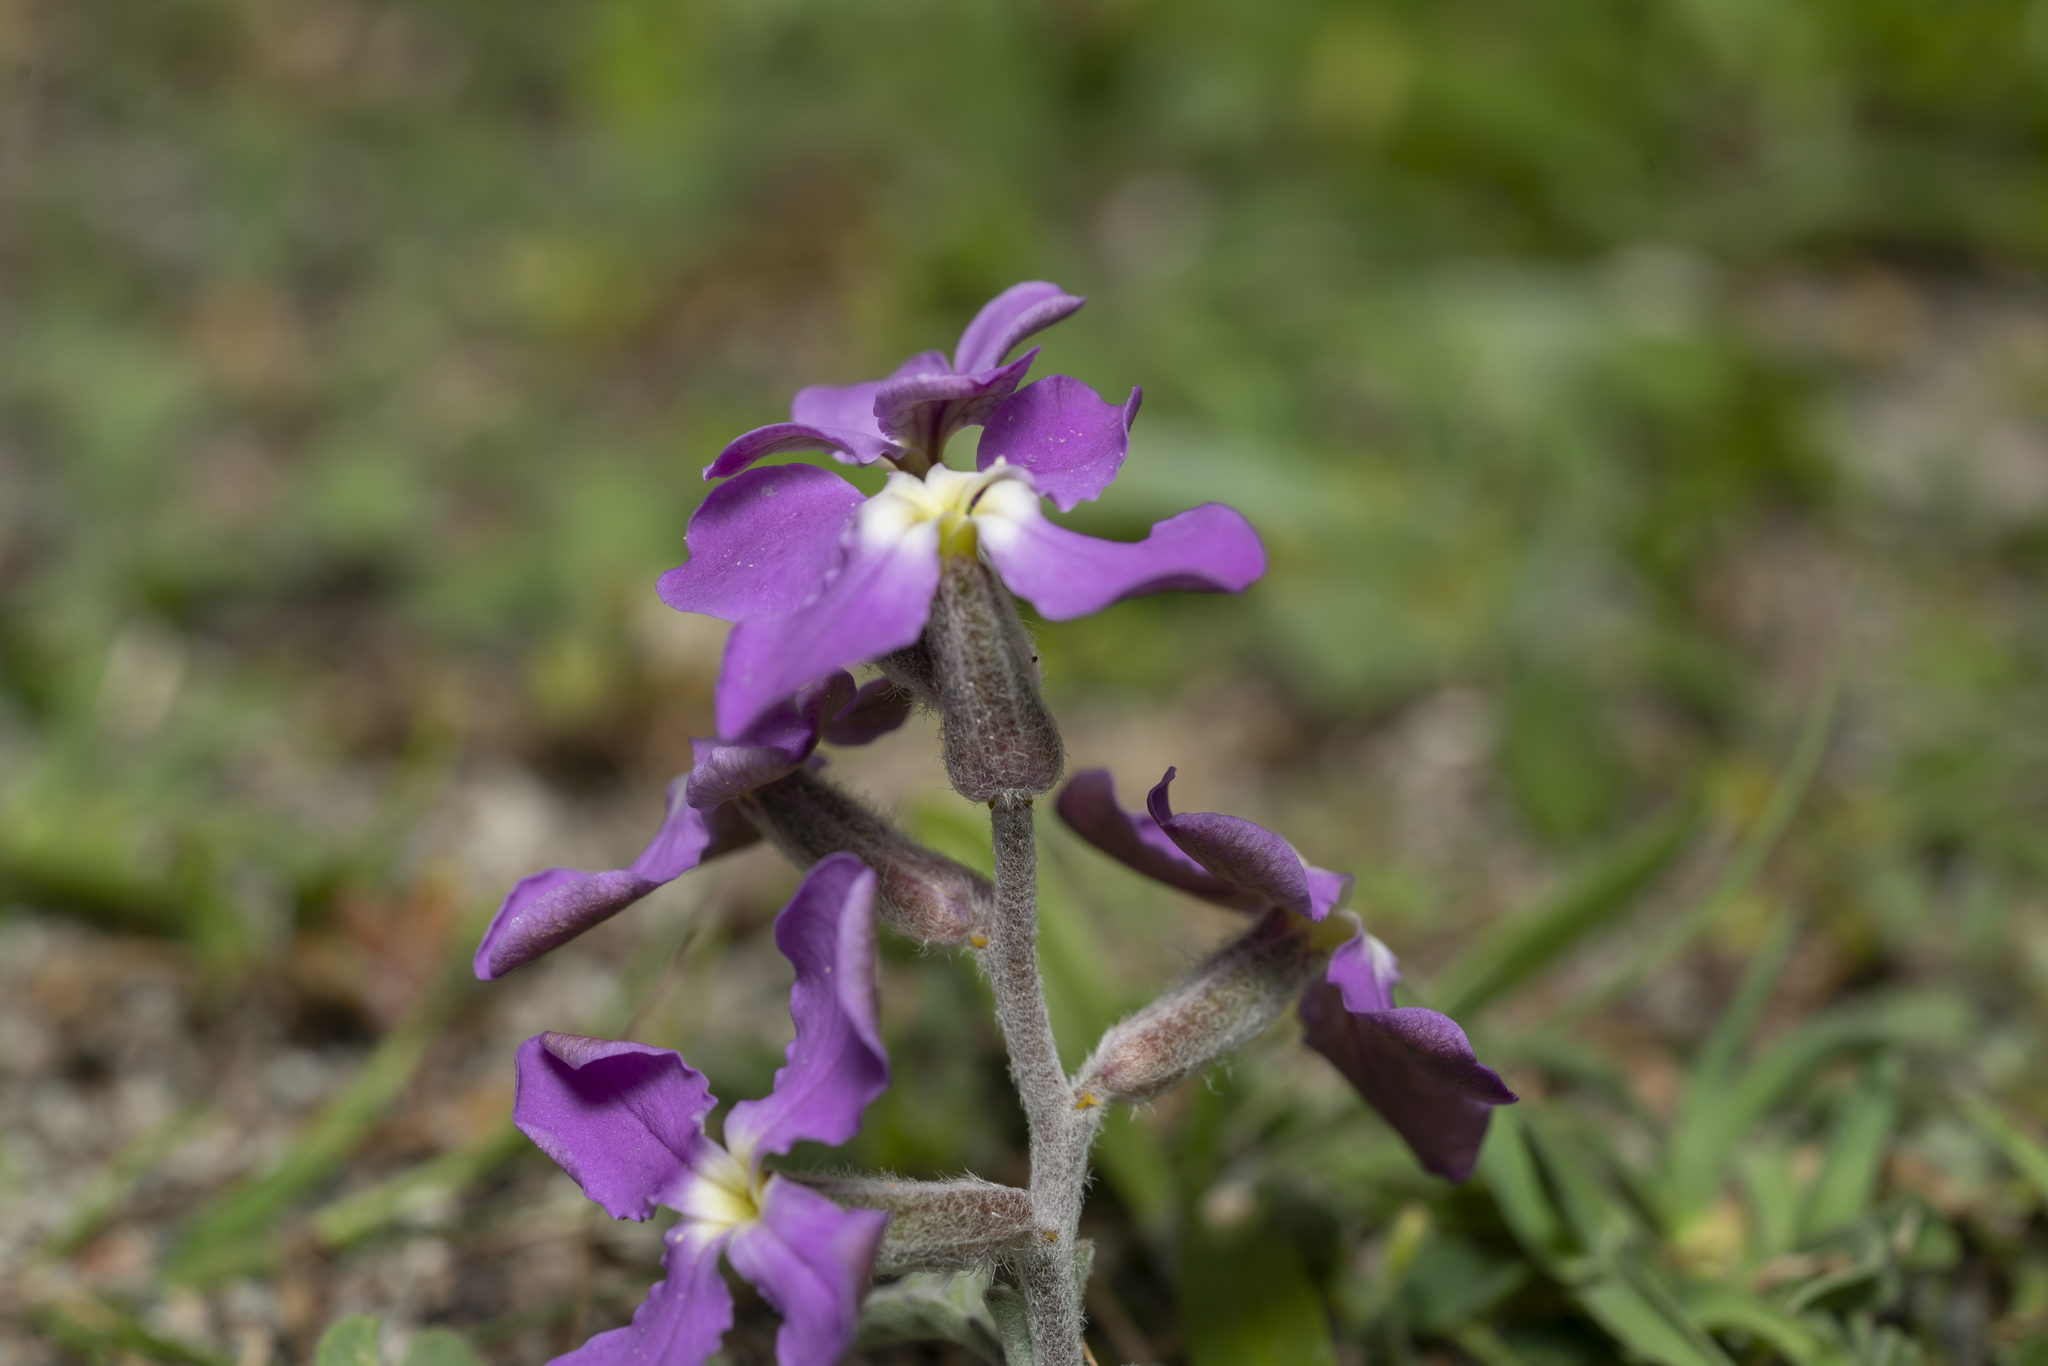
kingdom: Plantae
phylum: Tracheophyta
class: Magnoliopsida
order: Brassicales
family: Brassicaceae
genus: Matthiola
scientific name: Matthiola longipetala
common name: Night-scented stock
